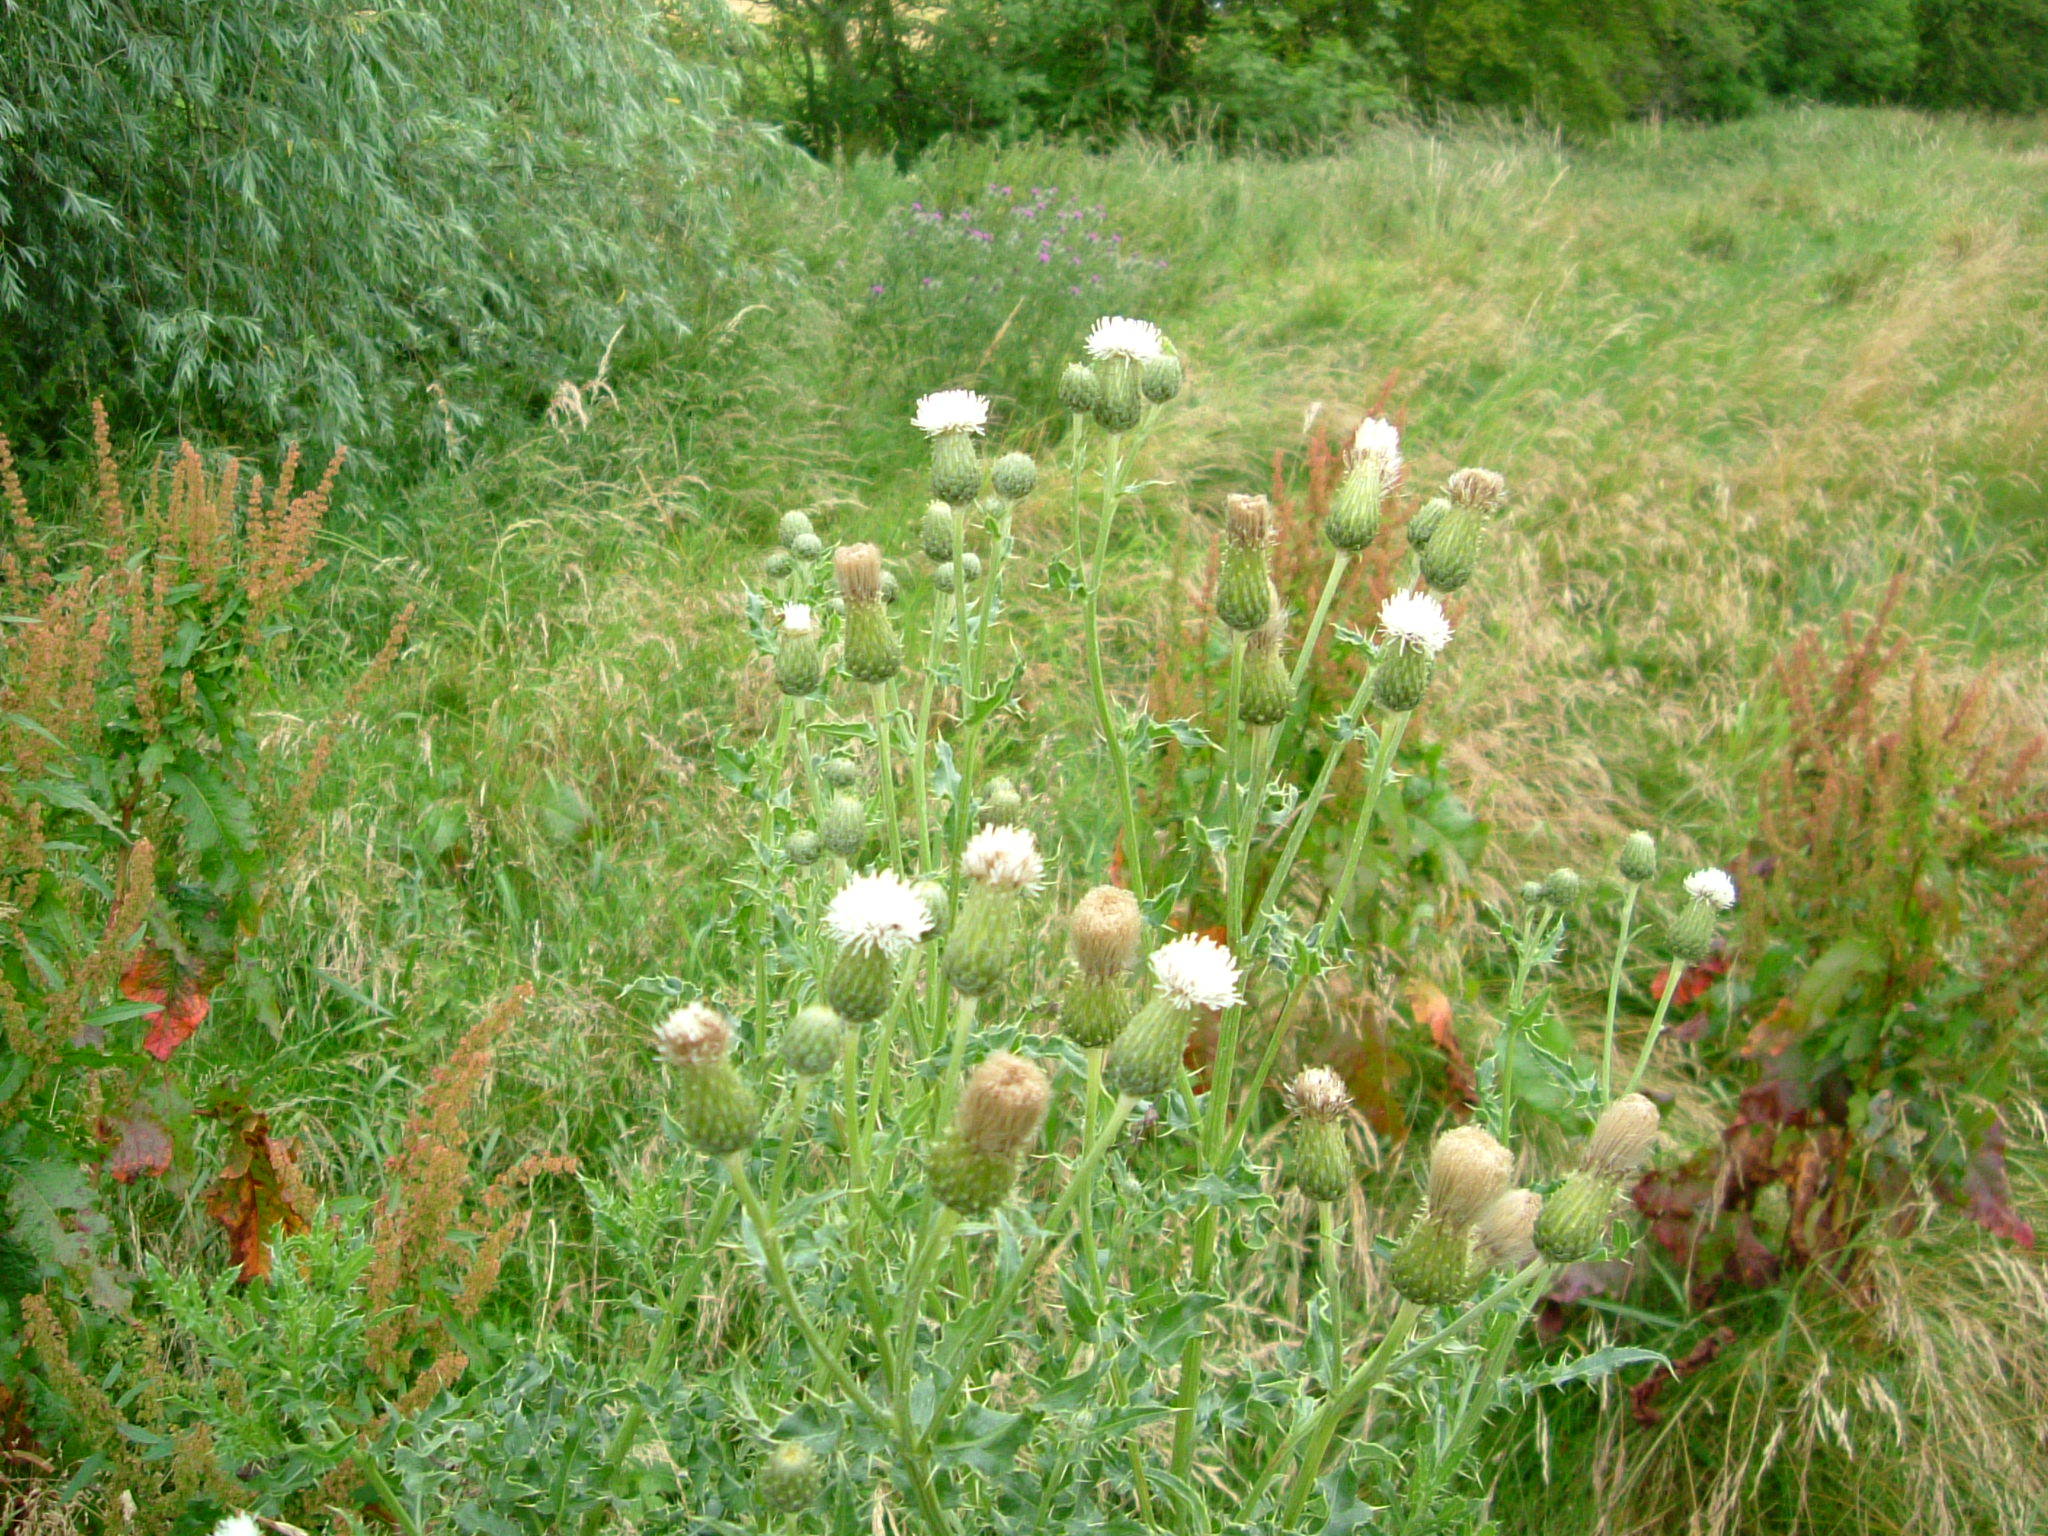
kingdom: Plantae
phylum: Tracheophyta
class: Magnoliopsida
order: Asterales
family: Asteraceae
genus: Cirsium
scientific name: Cirsium arvense
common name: Creeping thistle
